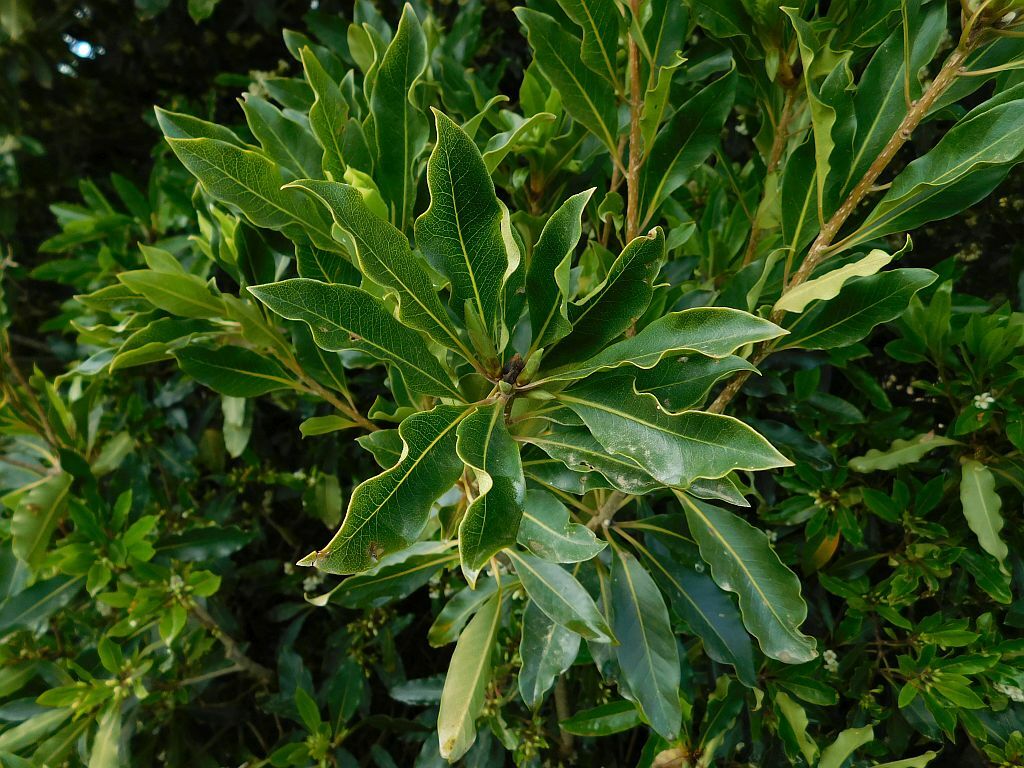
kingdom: Plantae
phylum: Tracheophyta
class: Magnoliopsida
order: Apiales
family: Pittosporaceae
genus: Pittosporum
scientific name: Pittosporum undulatum
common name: Australian cheesewood
